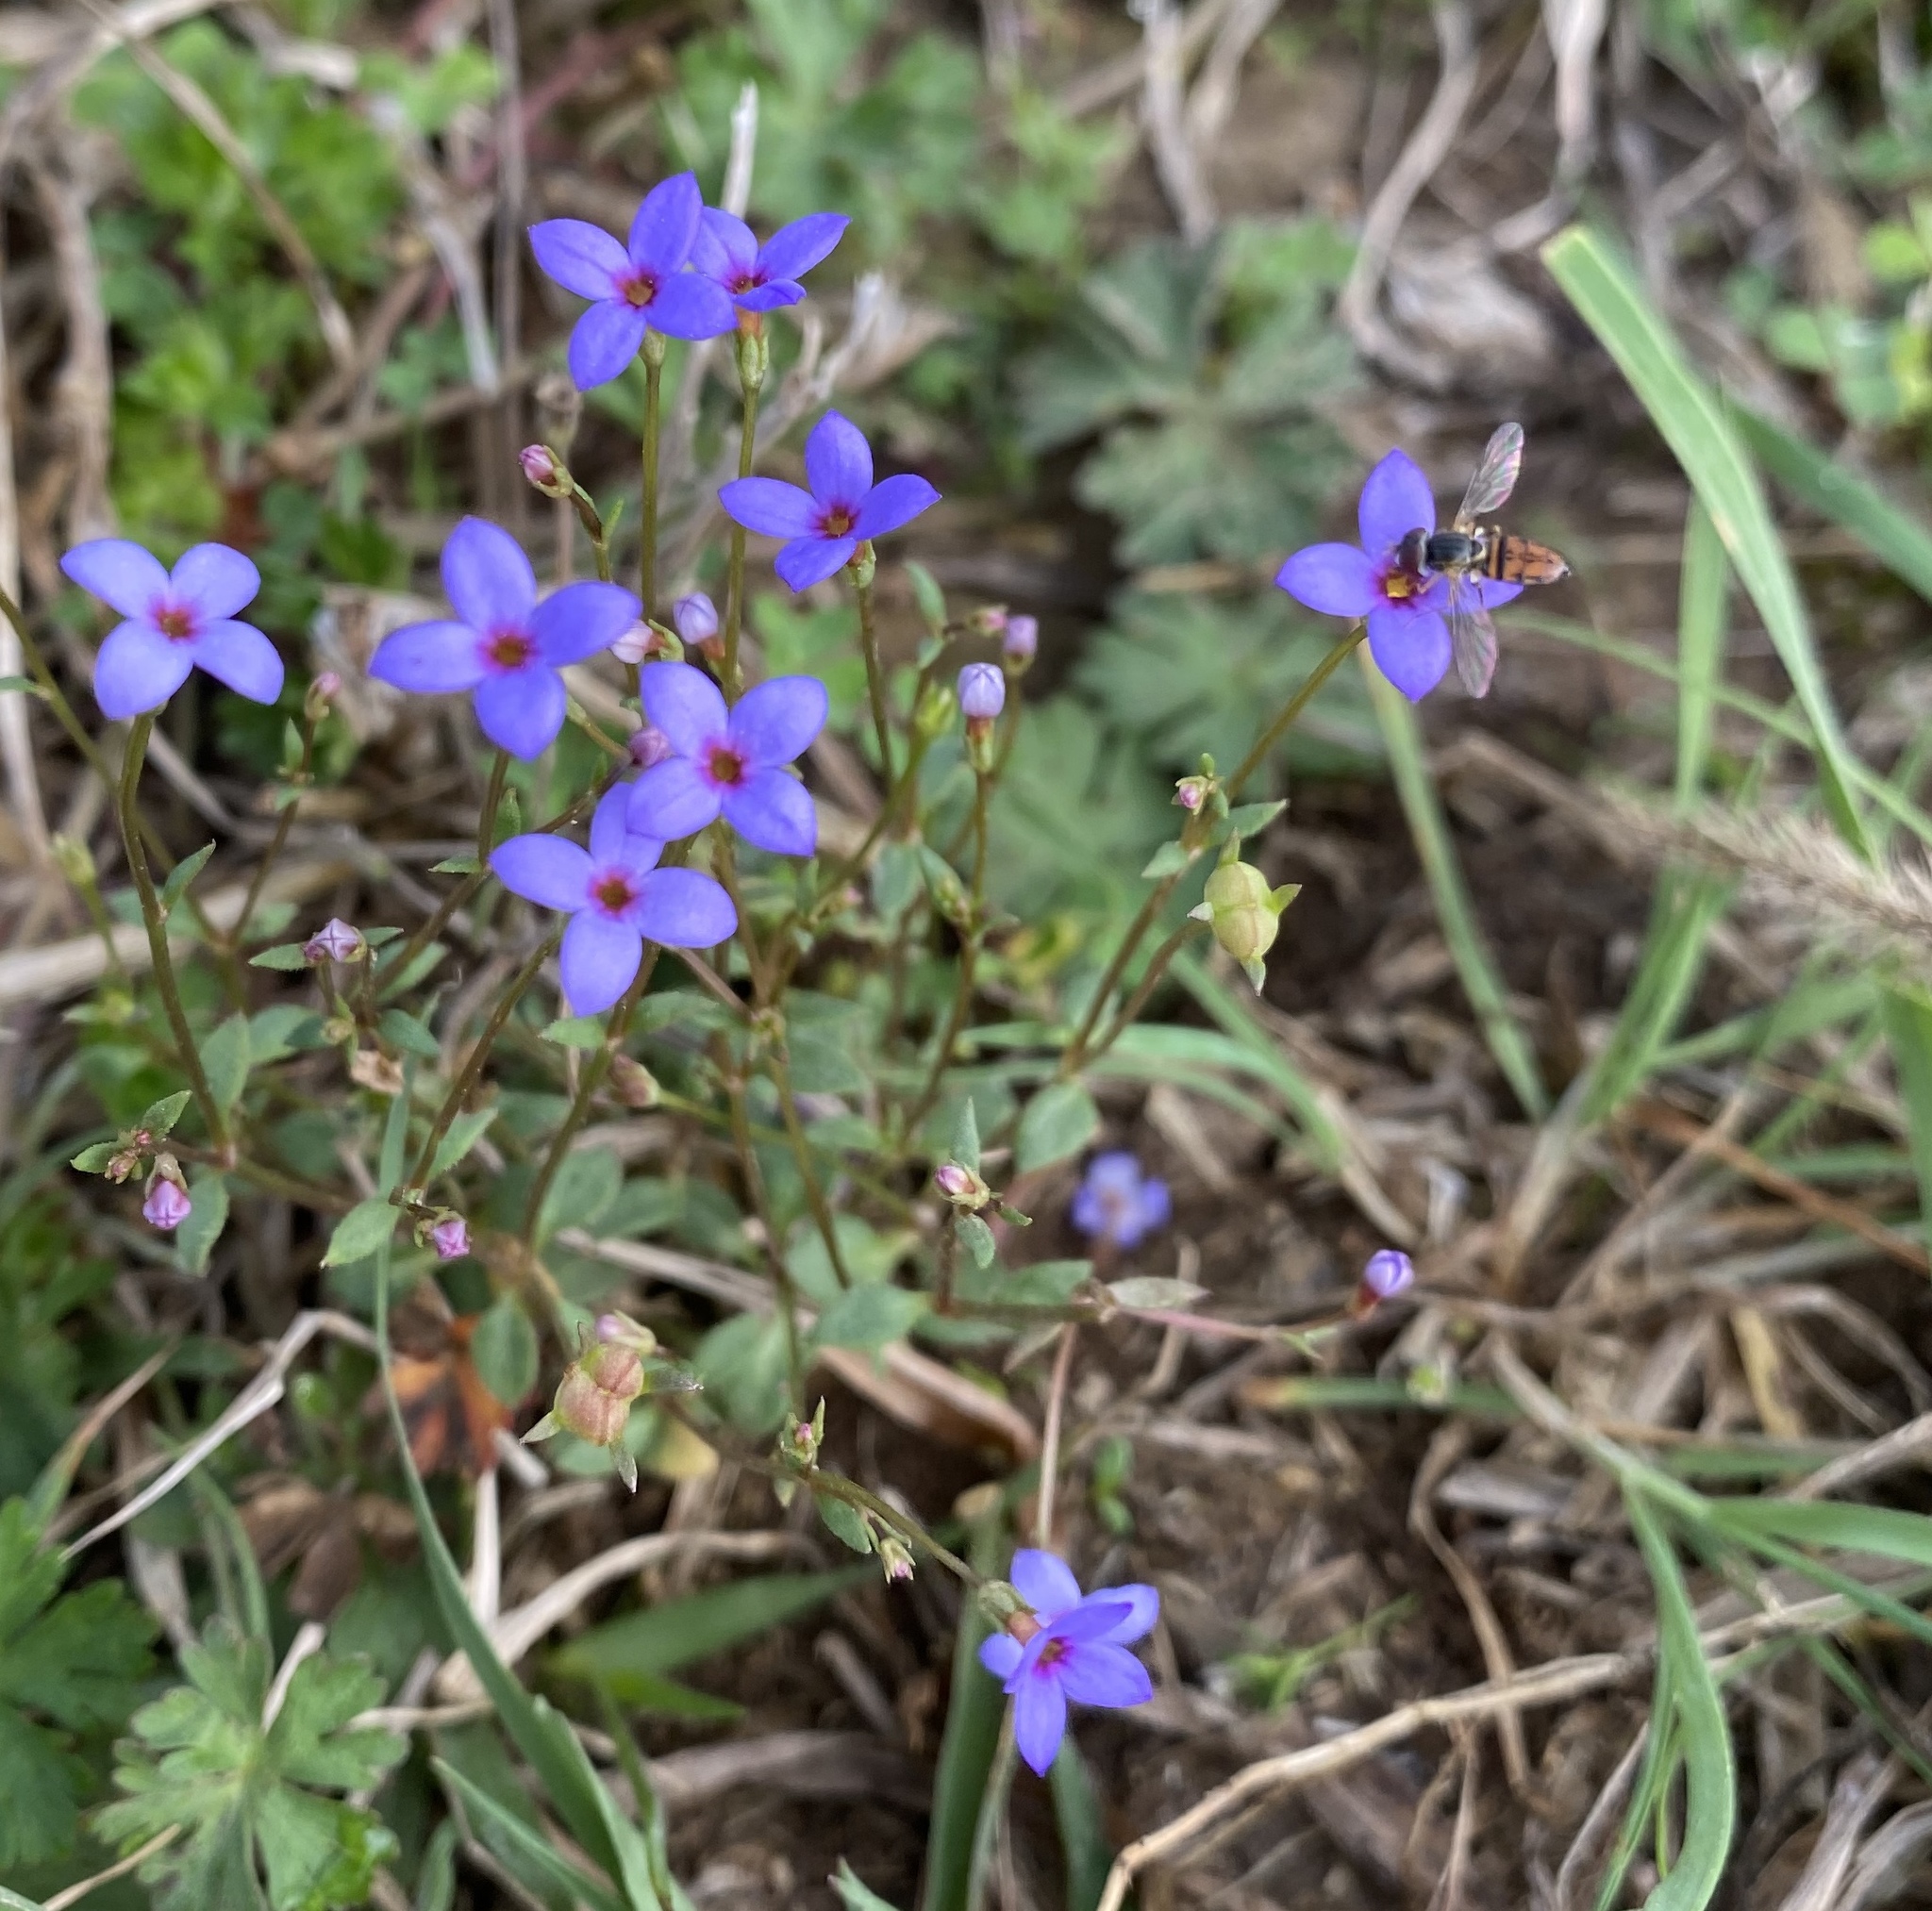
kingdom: Plantae
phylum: Tracheophyta
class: Magnoliopsida
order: Gentianales
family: Rubiaceae
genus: Houstonia
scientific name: Houstonia pusilla
